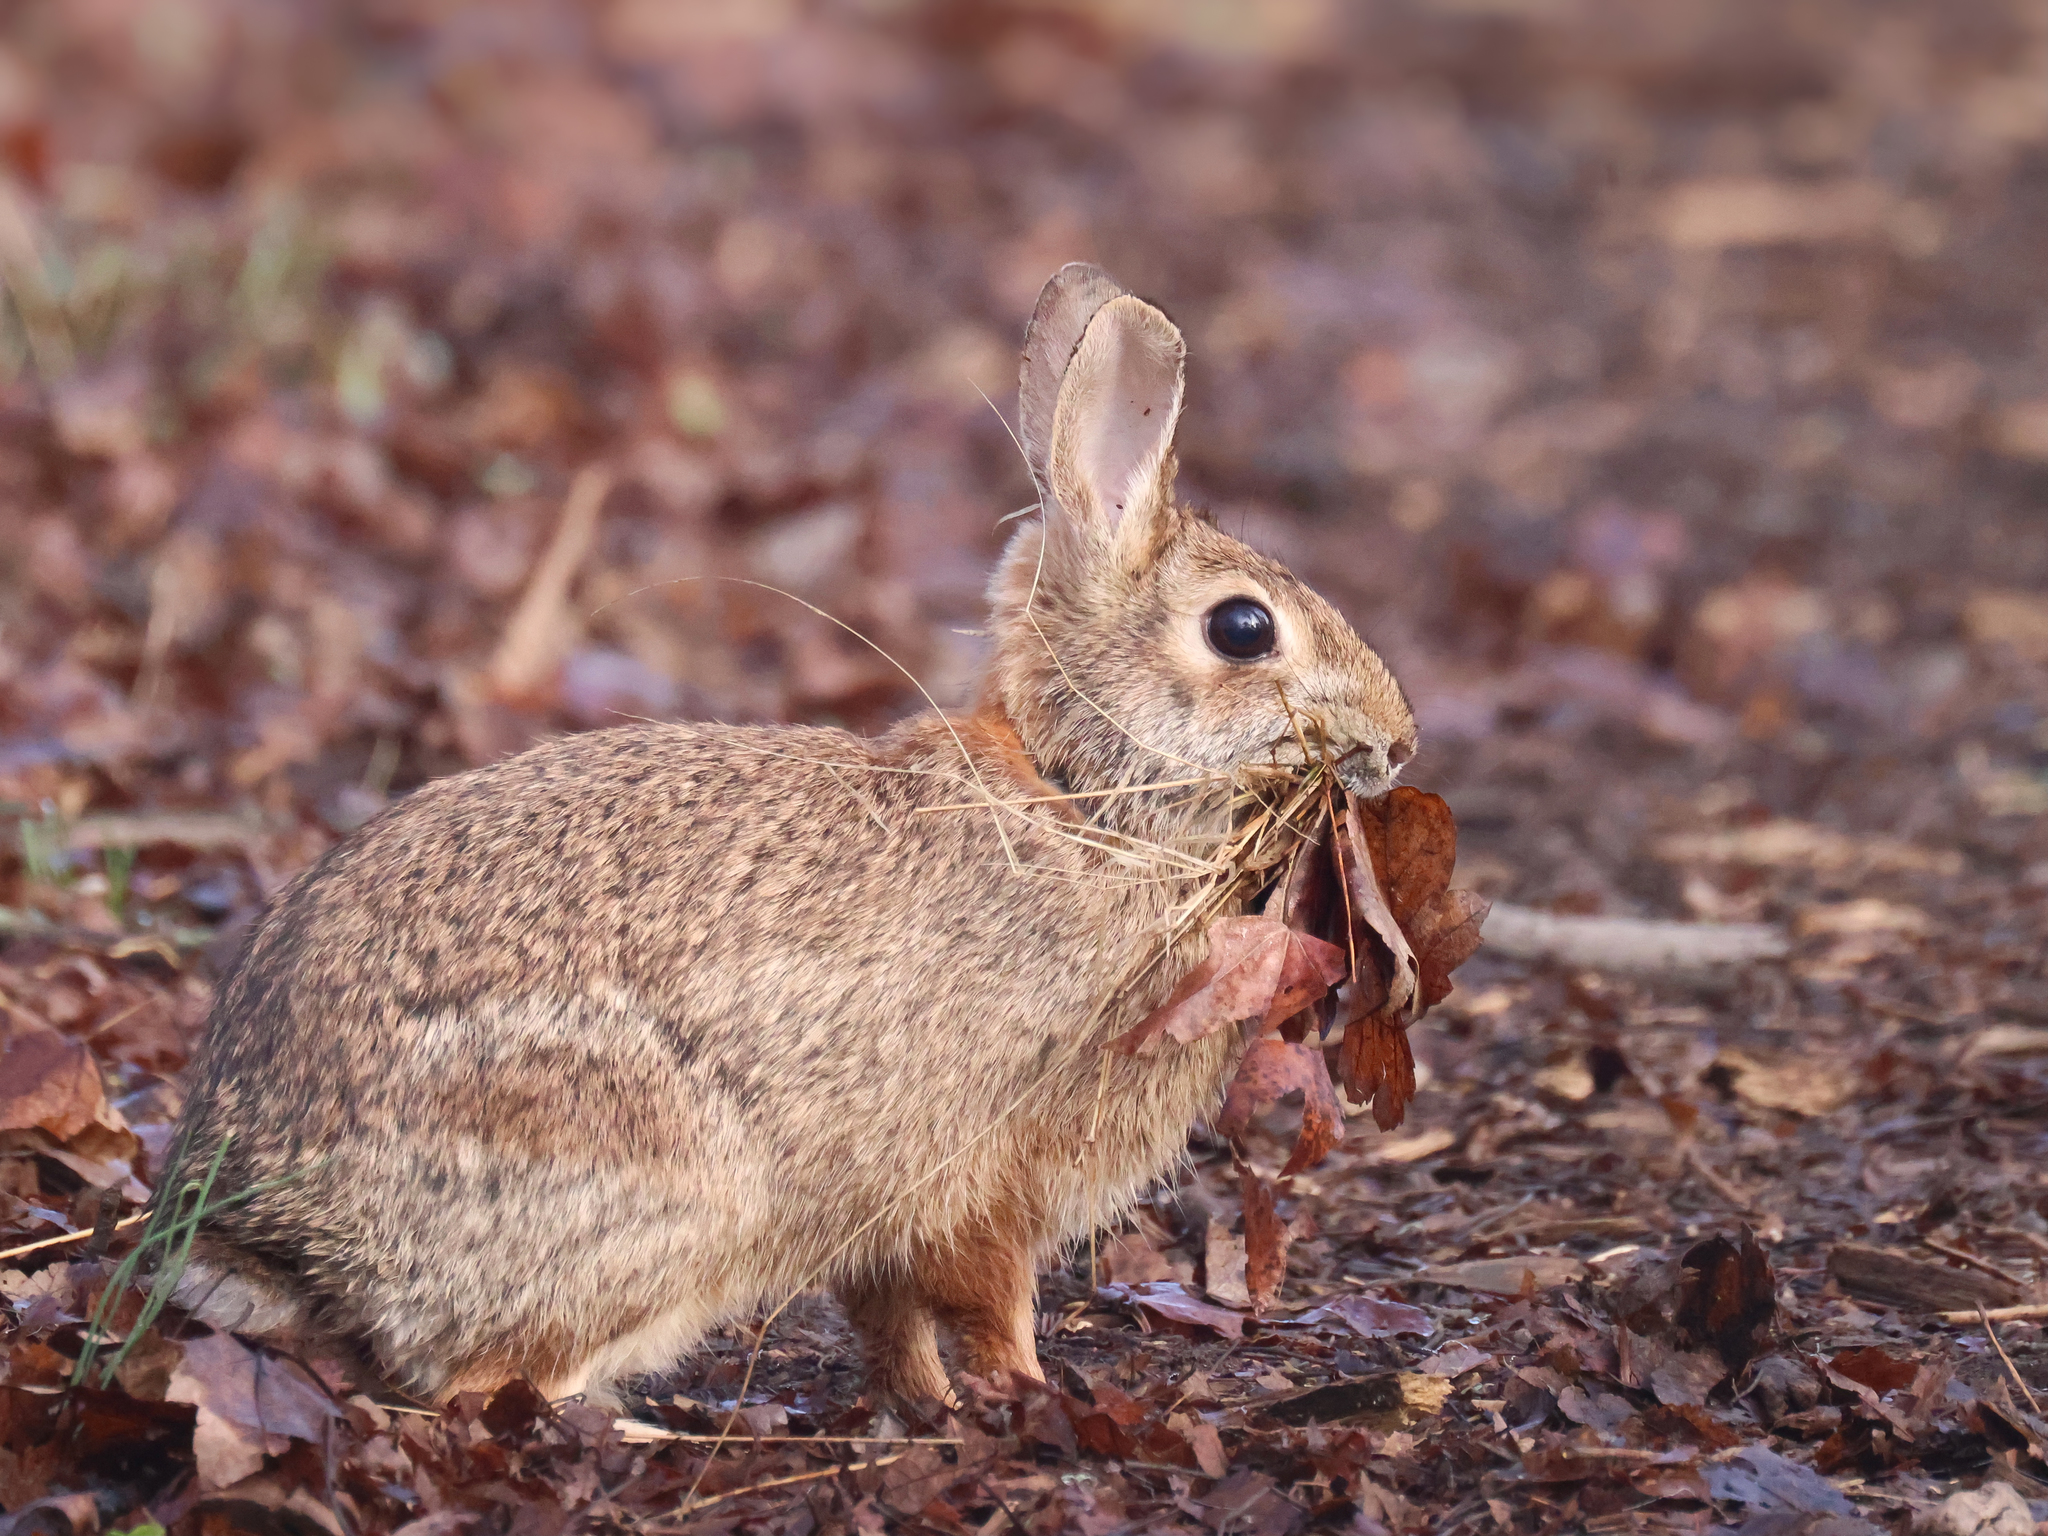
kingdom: Animalia
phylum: Chordata
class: Mammalia
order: Lagomorpha
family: Leporidae
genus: Sylvilagus
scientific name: Sylvilagus floridanus
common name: Eastern cottontail
